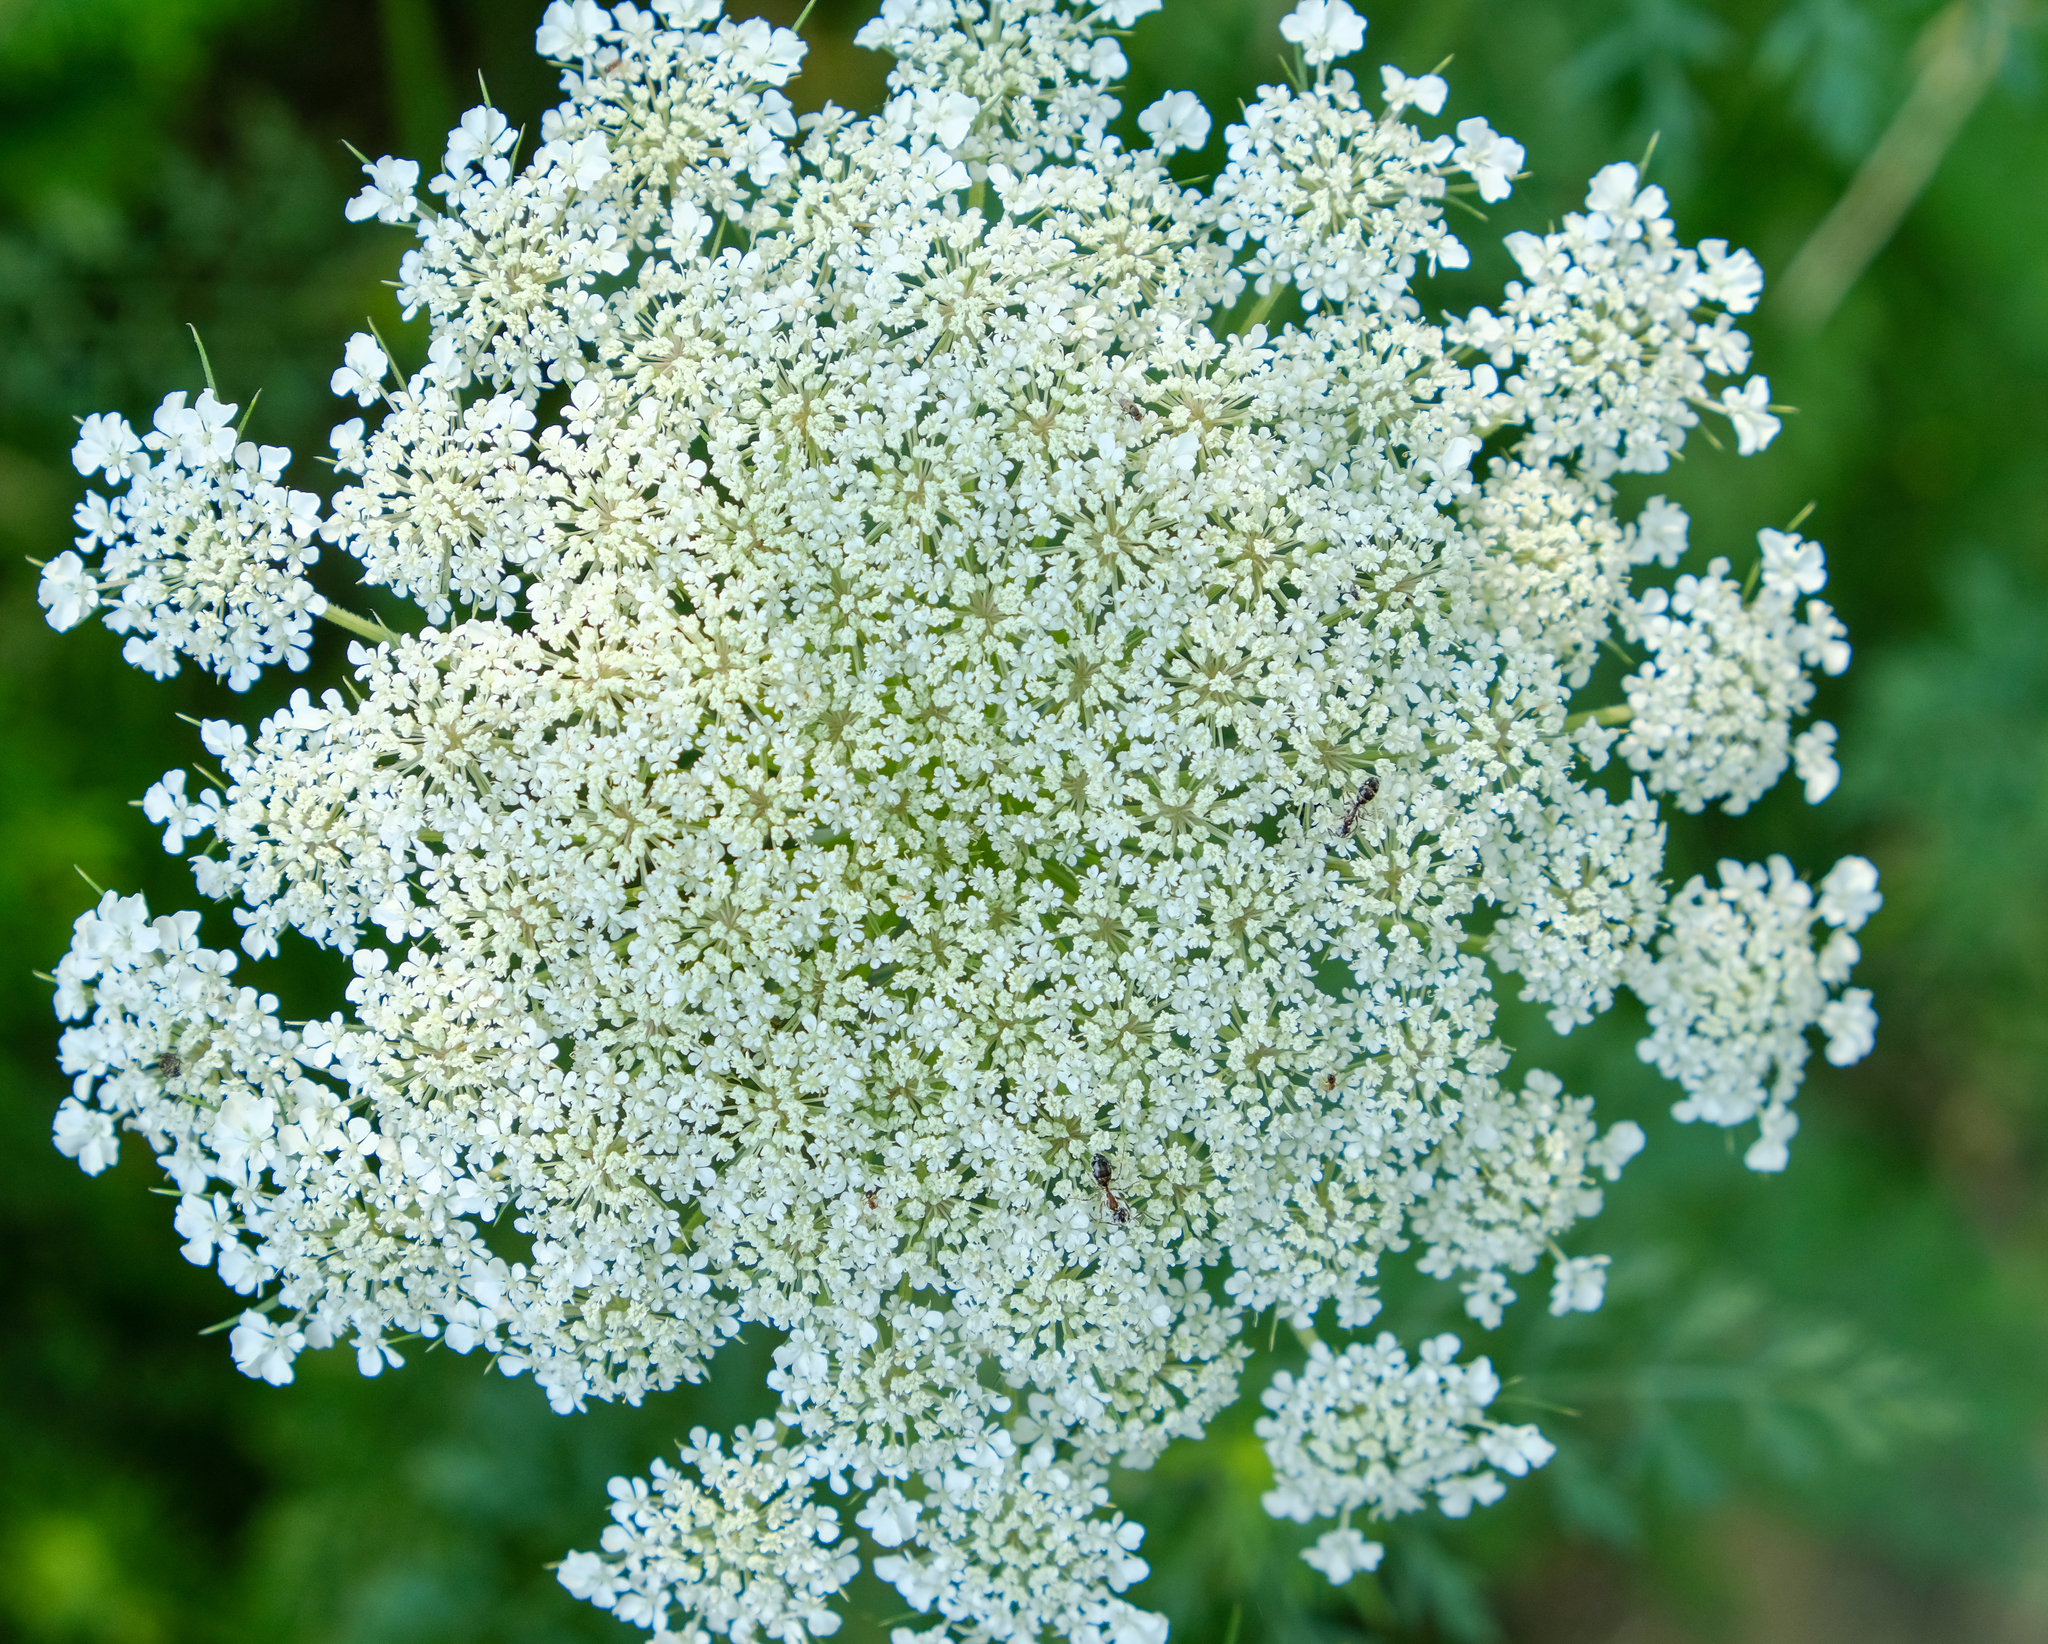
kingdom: Plantae
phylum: Tracheophyta
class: Magnoliopsida
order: Apiales
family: Apiaceae
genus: Daucus
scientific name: Daucus carota
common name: Wild carrot
